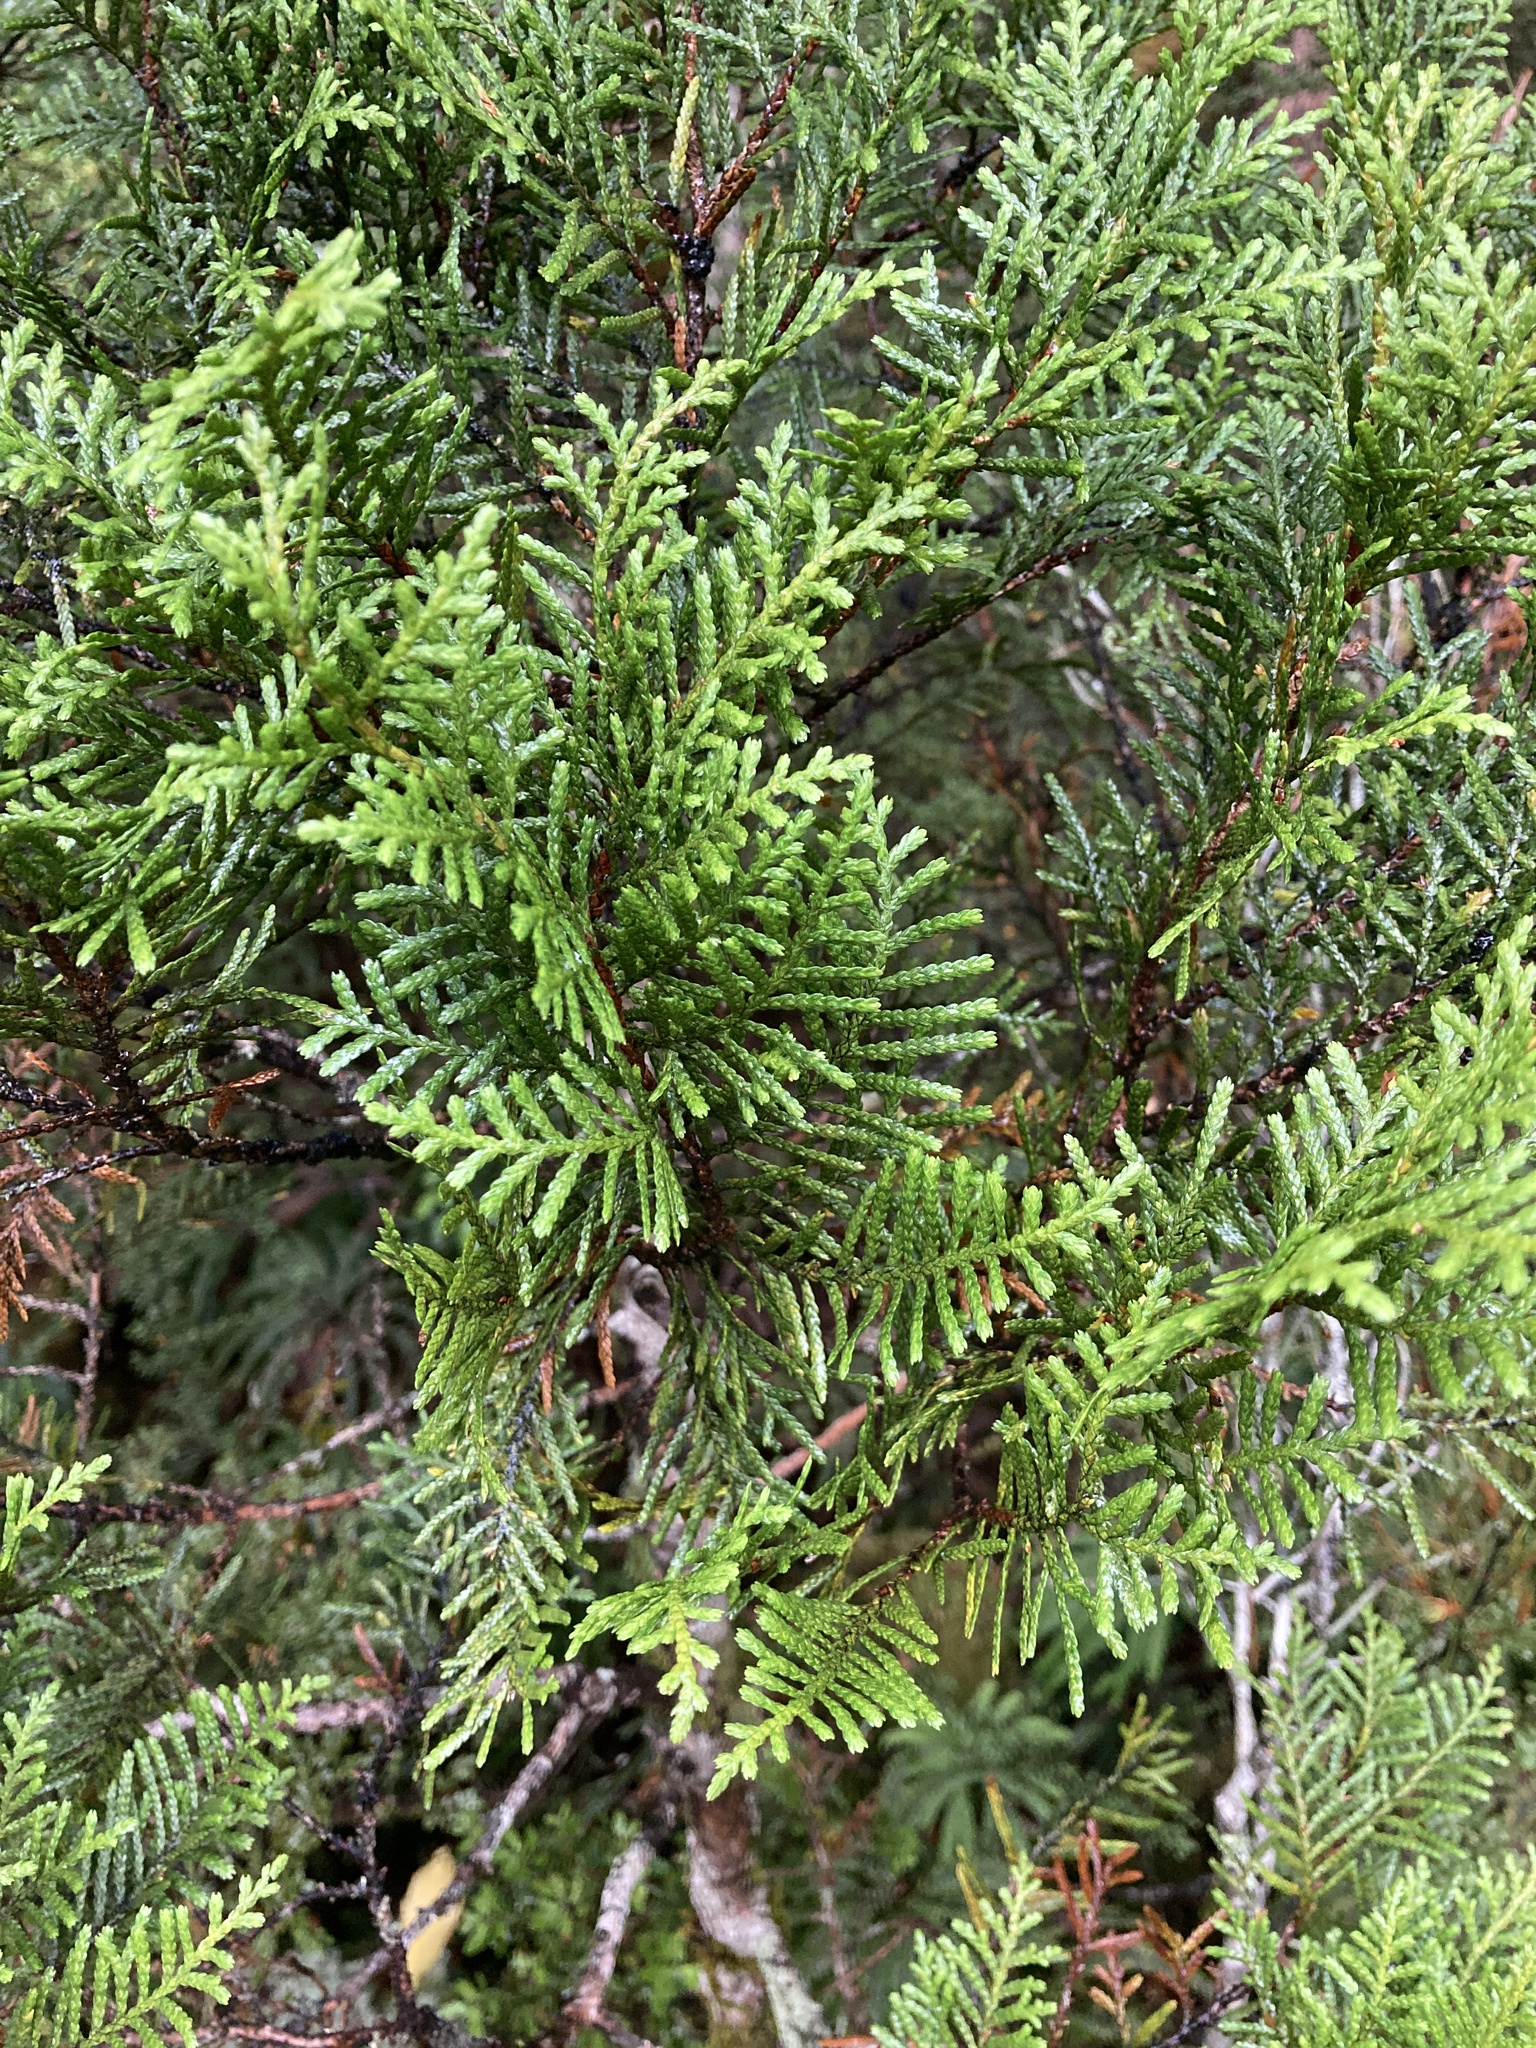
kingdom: Plantae
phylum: Tracheophyta
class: Pinopsida
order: Pinales
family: Cupressaceae
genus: Libocedrus
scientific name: Libocedrus bidwillii
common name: Cedar
